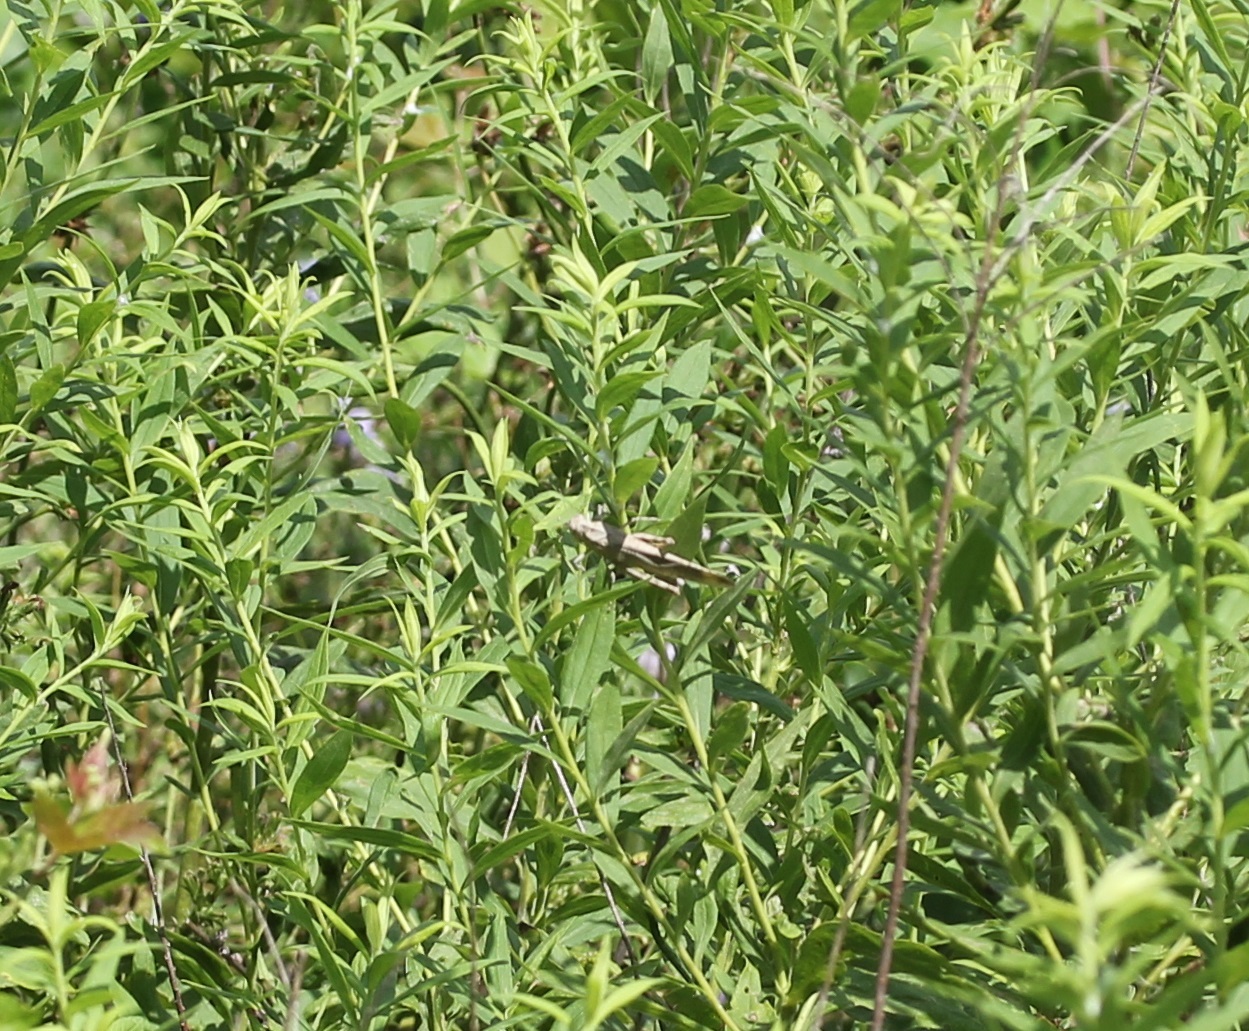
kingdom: Animalia
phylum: Arthropoda
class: Insecta
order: Orthoptera
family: Acrididae
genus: Dissosteira
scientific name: Dissosteira carolina
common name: Carolina grasshopper
